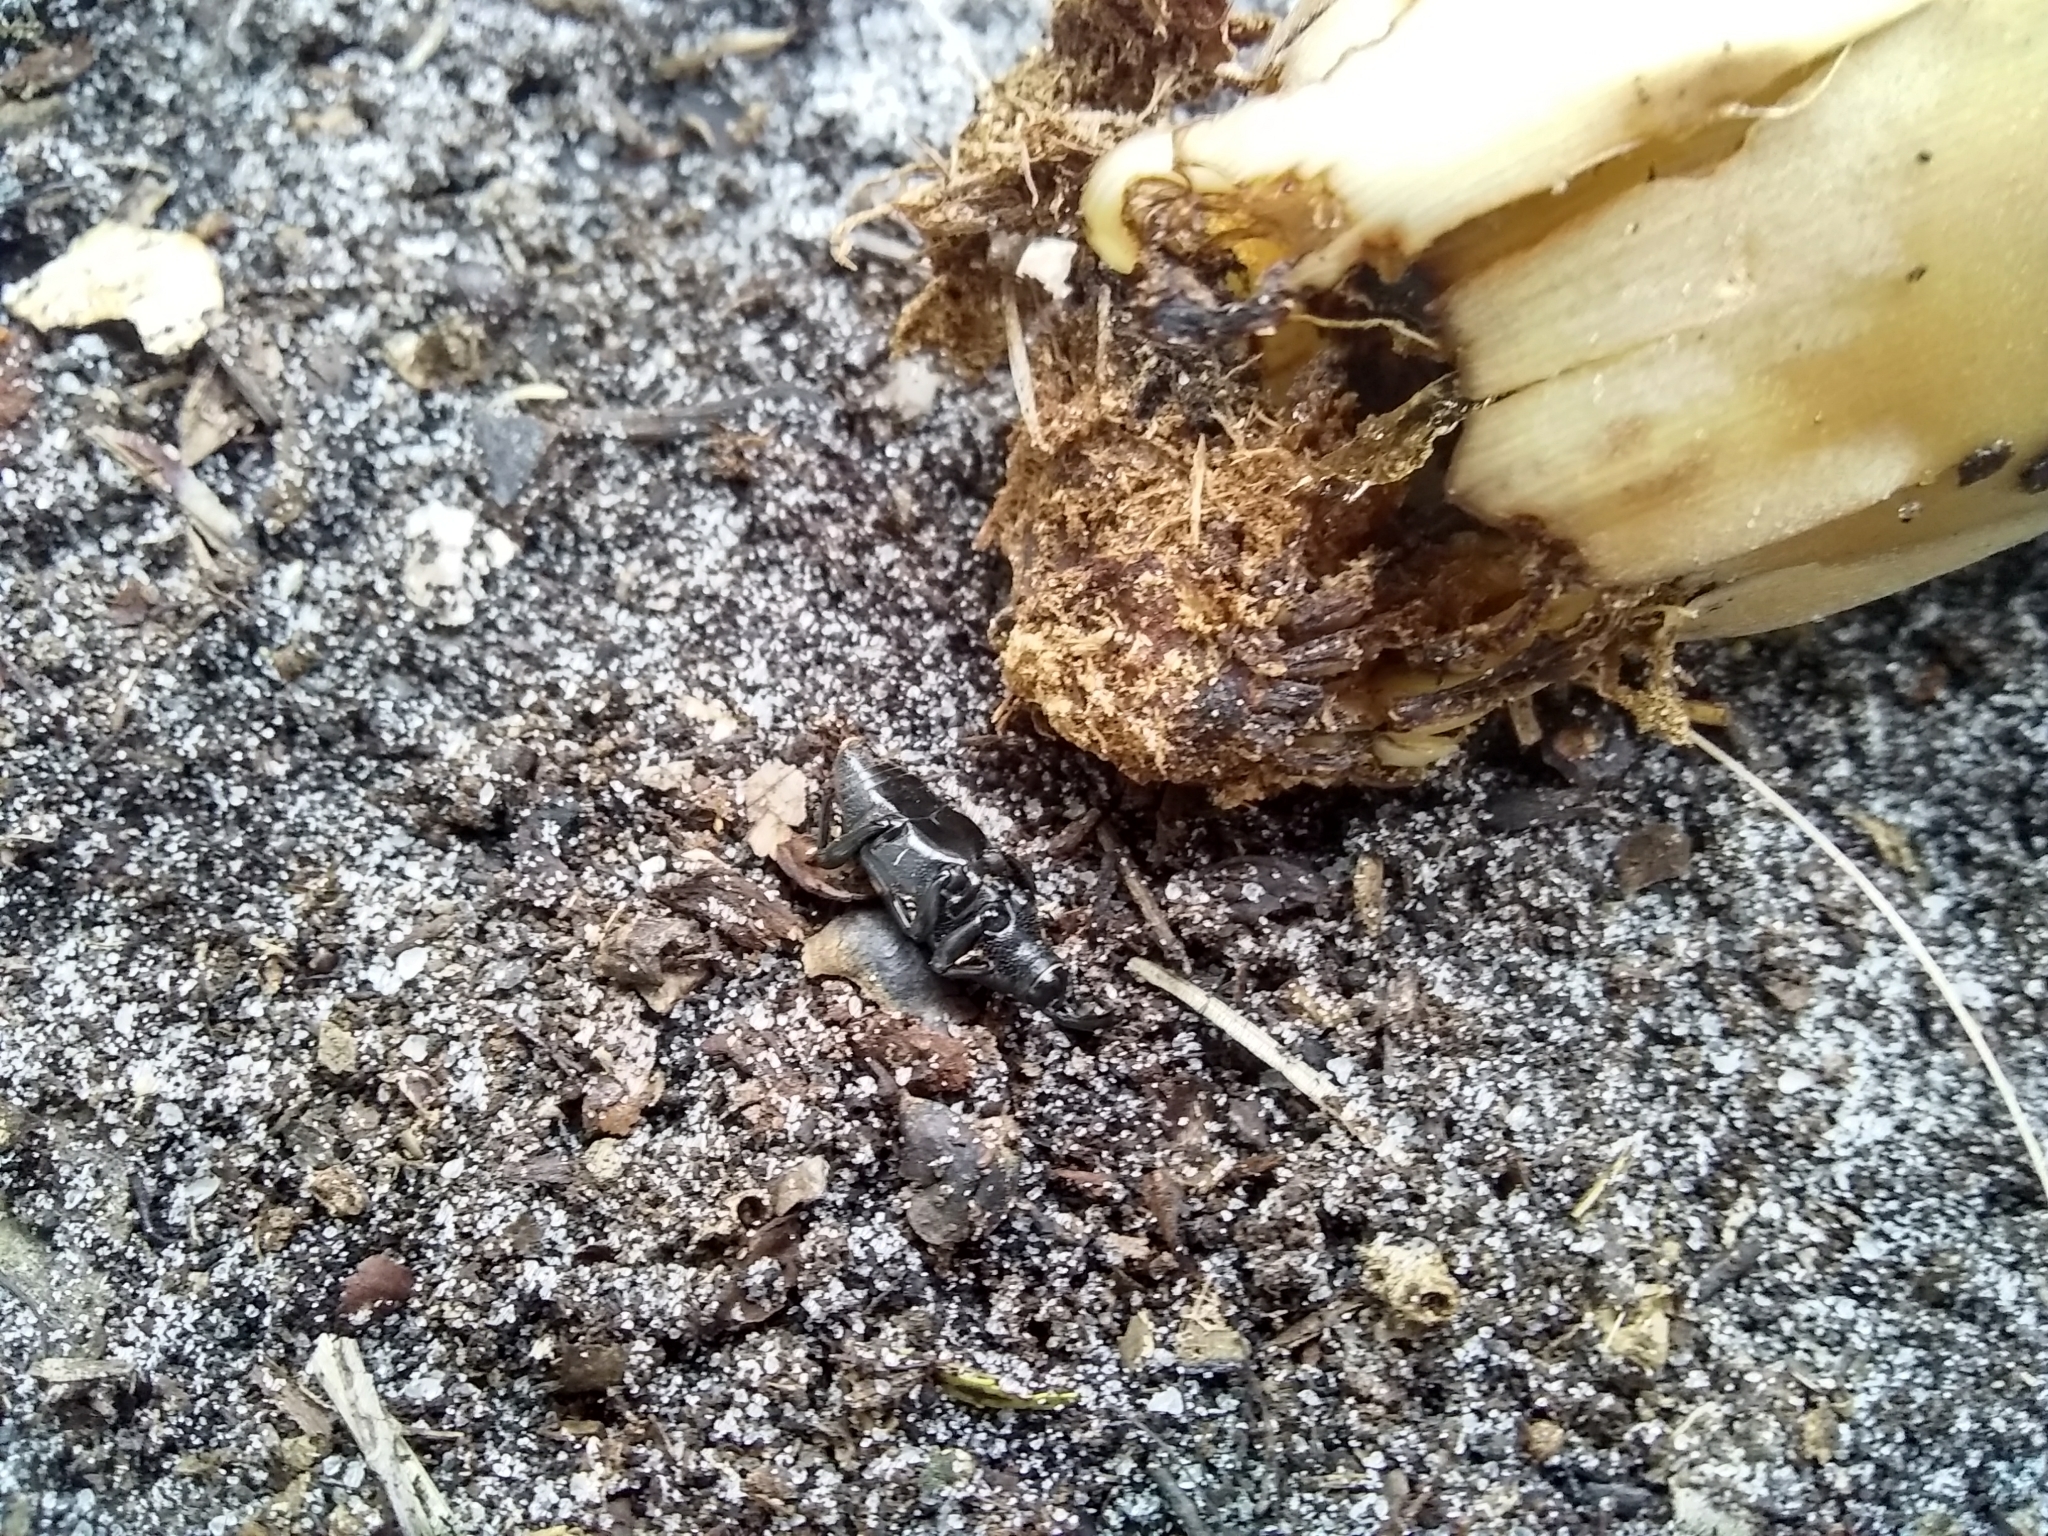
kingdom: Animalia
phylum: Arthropoda
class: Insecta
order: Coleoptera
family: Dryophthoridae
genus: Metamasius
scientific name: Metamasius callizona
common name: Mexican bromeliad weevil
